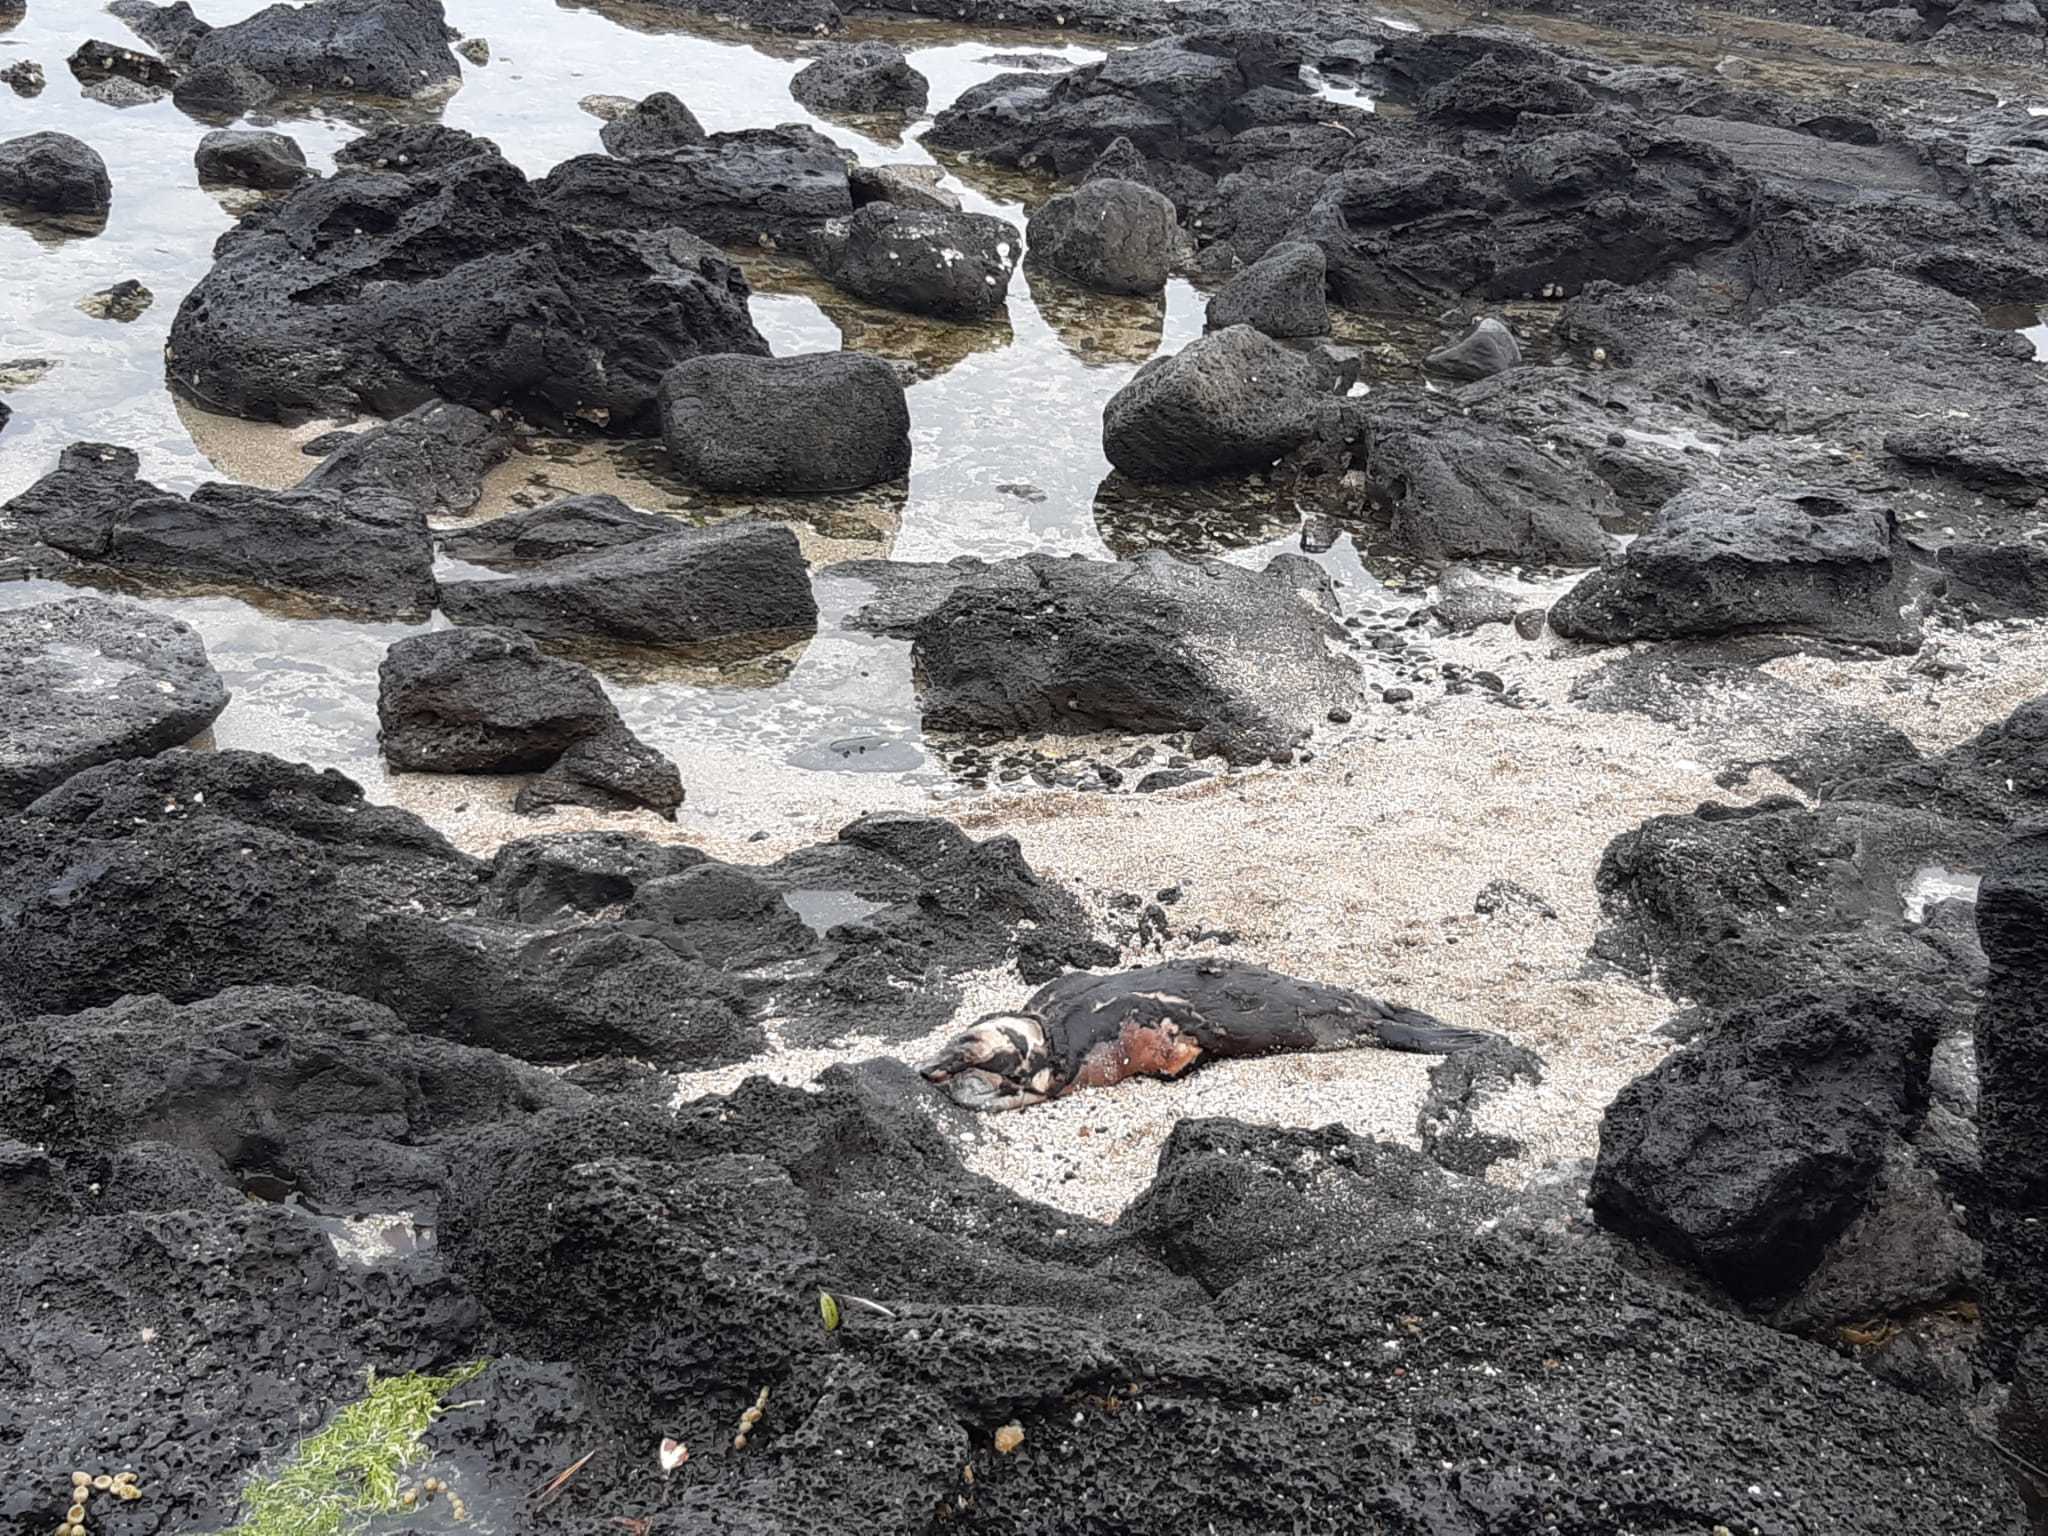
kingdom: Animalia
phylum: Chordata
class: Mammalia
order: Carnivora
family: Otariidae
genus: Arctocephalus
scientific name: Arctocephalus forsteri
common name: New zealand fur seal
